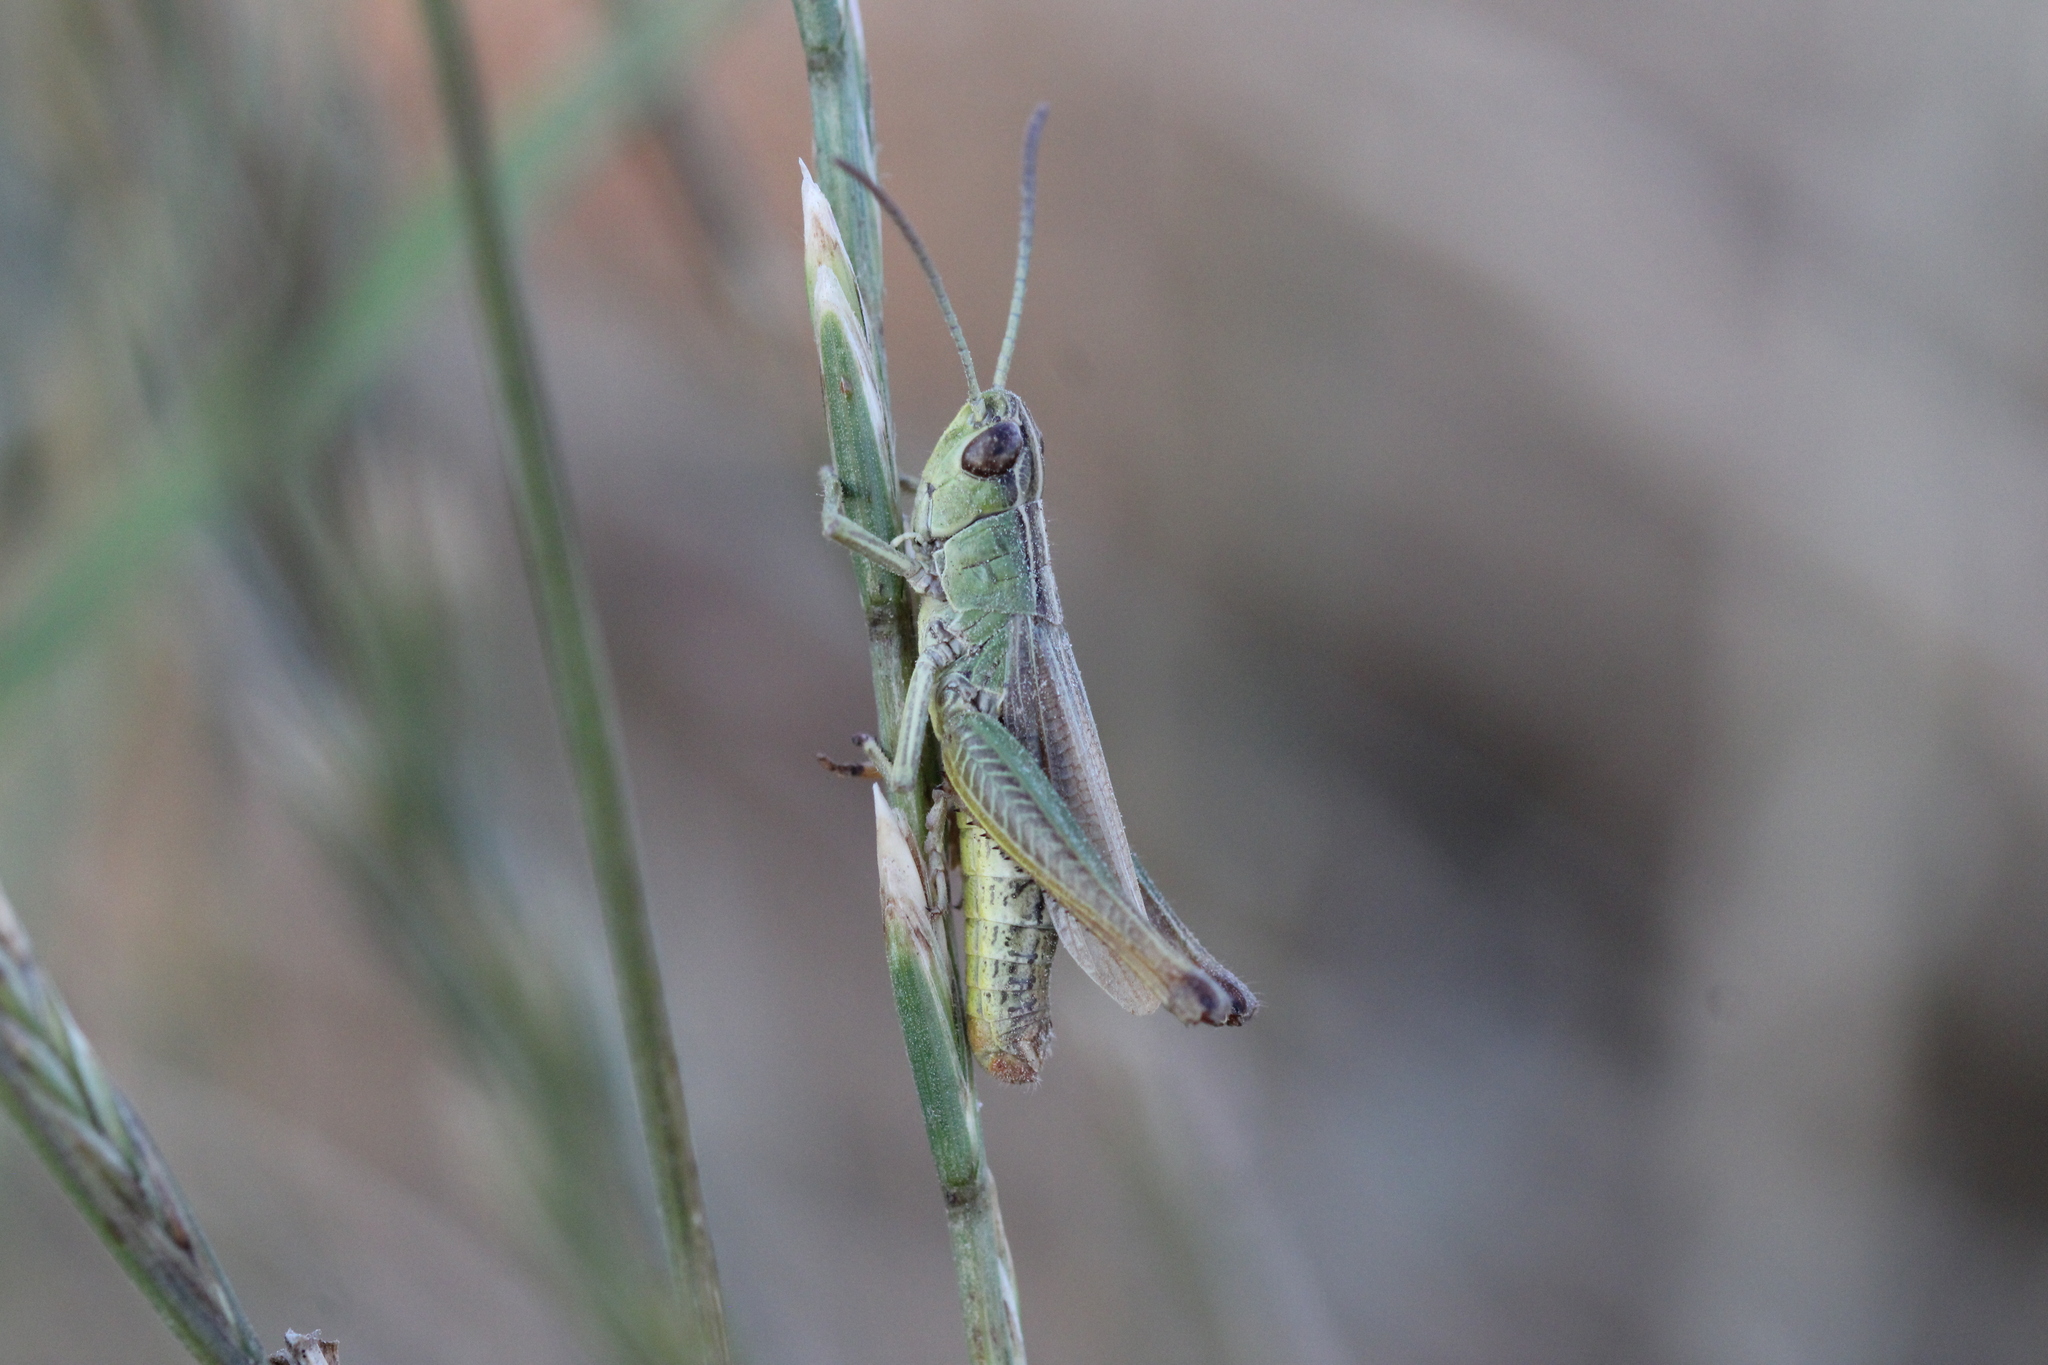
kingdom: Animalia
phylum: Arthropoda
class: Insecta
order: Orthoptera
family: Acrididae
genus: Pseudochorthippus
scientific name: Pseudochorthippus parallelus
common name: Meadow grasshopper
